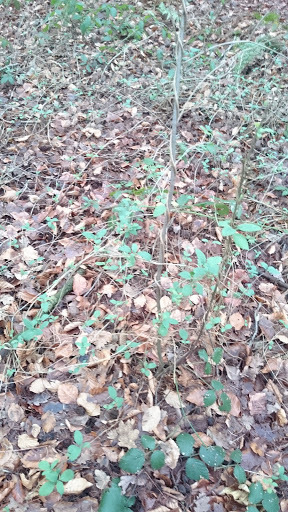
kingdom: Plantae
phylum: Tracheophyta
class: Magnoliopsida
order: Dipsacales
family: Caprifoliaceae
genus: Lonicera
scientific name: Lonicera periclymenum
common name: European honeysuckle
